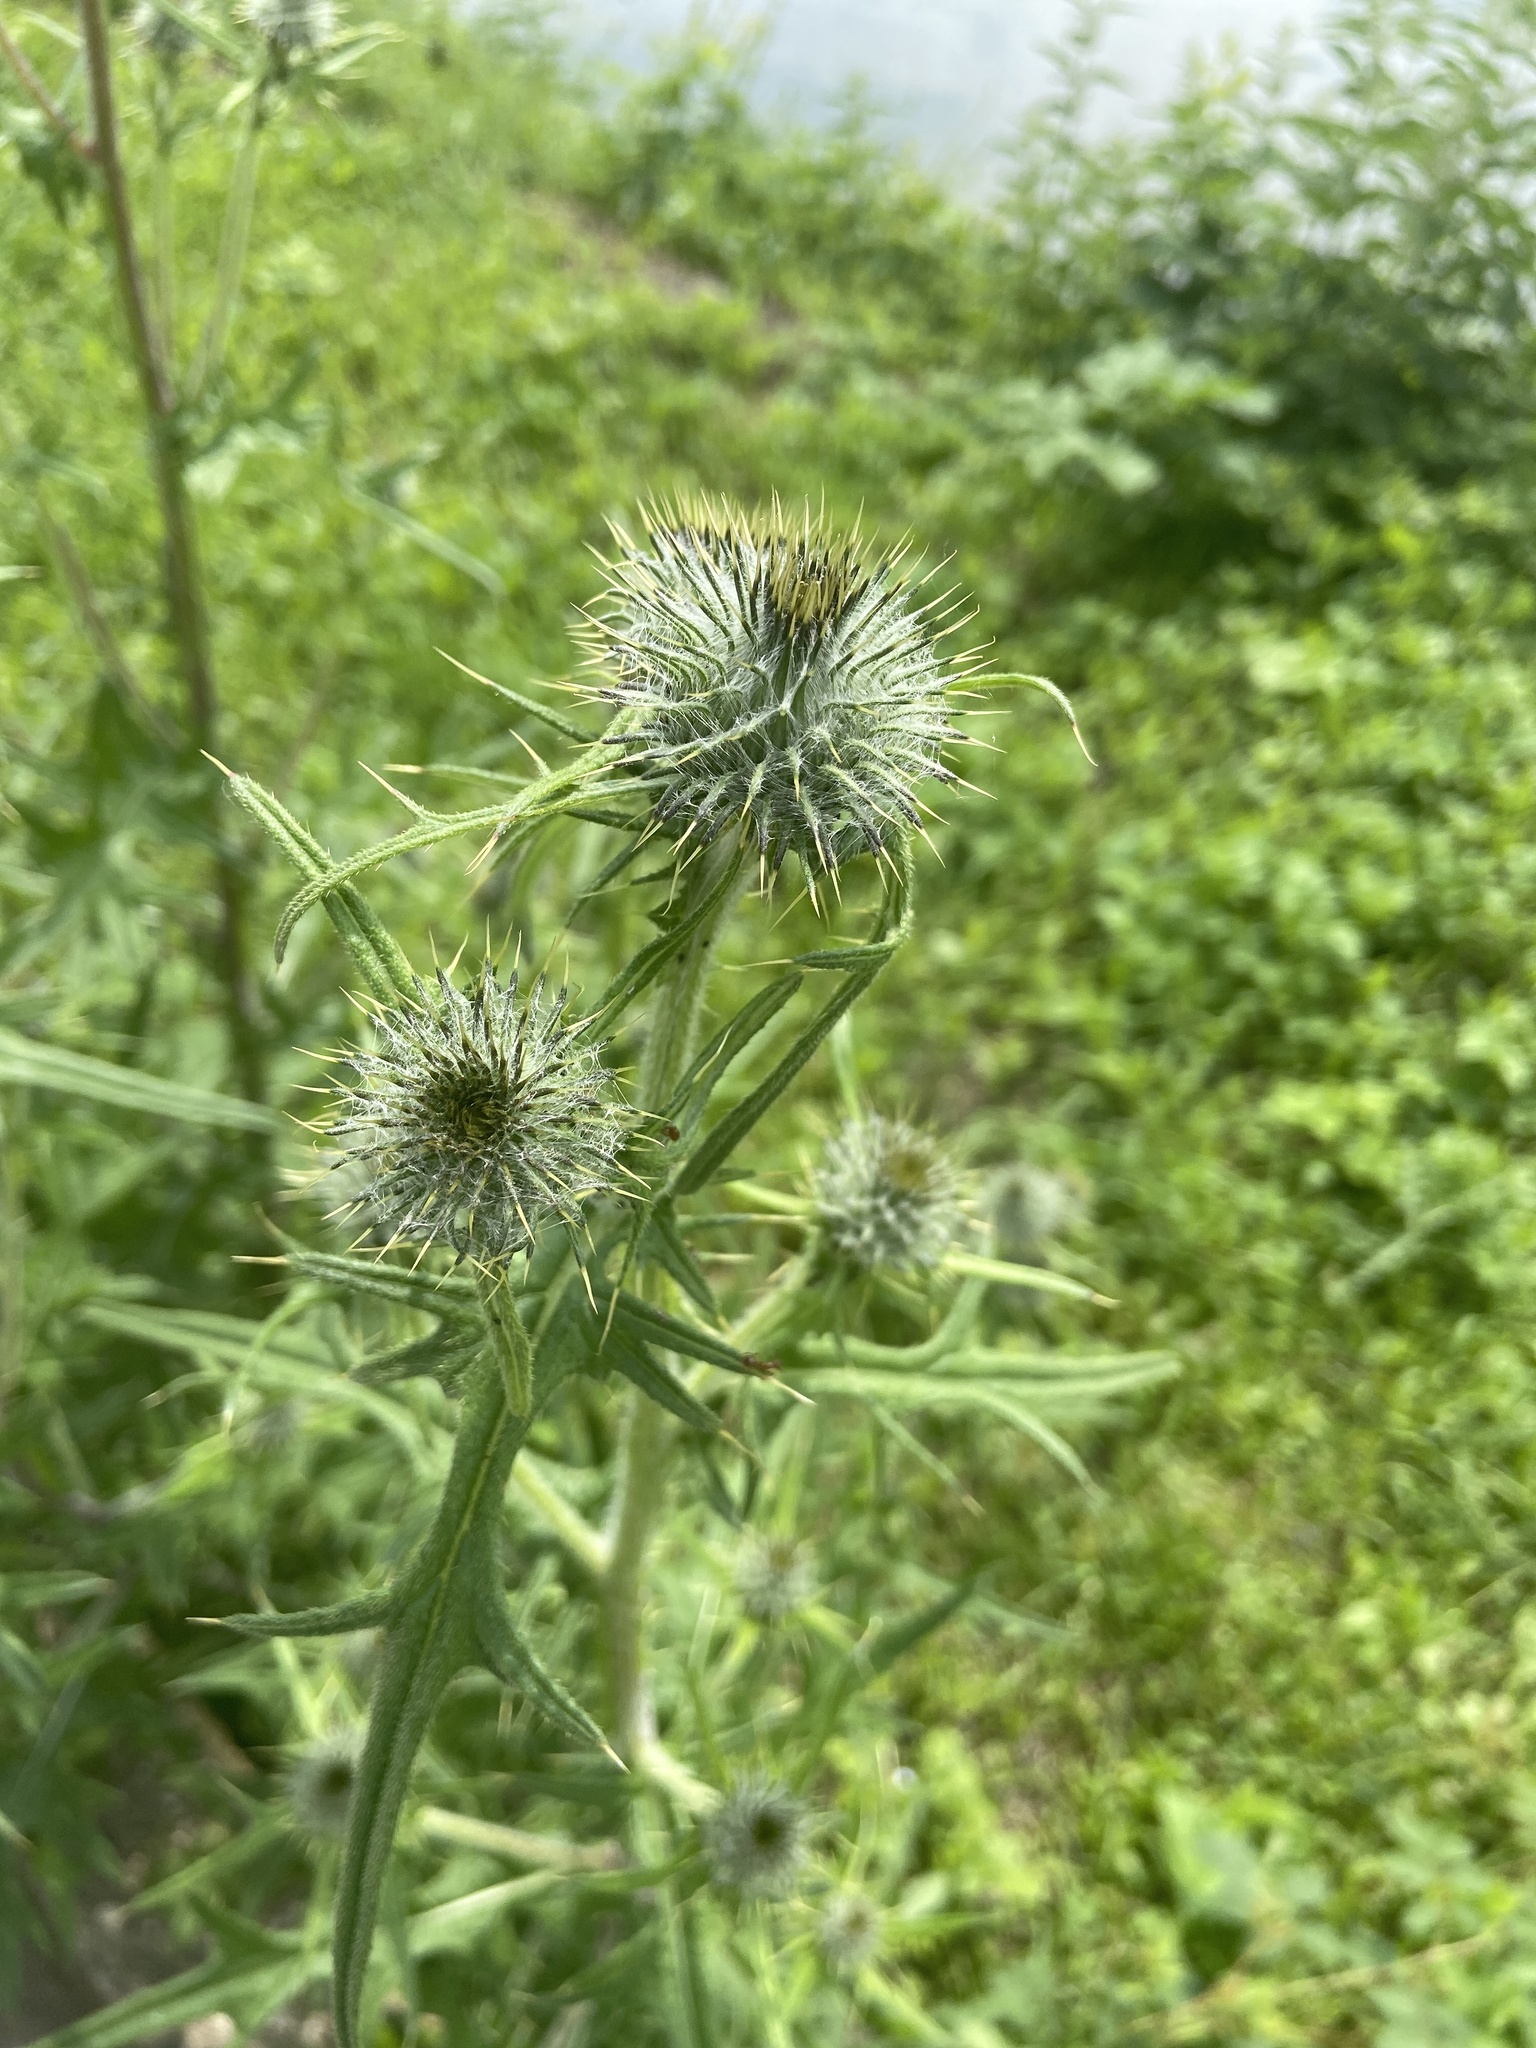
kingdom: Plantae
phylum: Tracheophyta
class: Magnoliopsida
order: Asterales
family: Asteraceae
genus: Cirsium
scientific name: Cirsium vulgare
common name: Bull thistle
